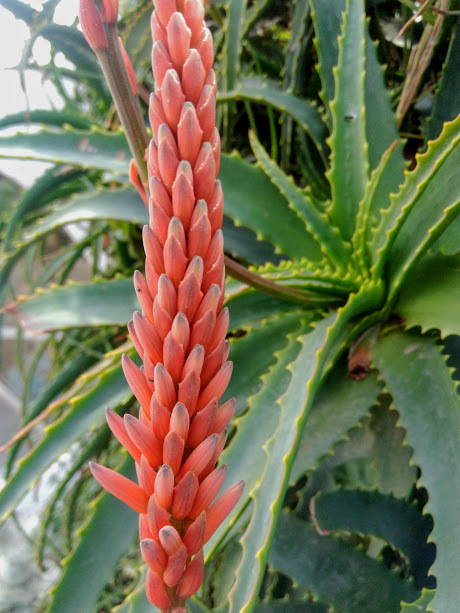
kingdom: Plantae
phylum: Tracheophyta
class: Liliopsida
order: Asparagales
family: Asphodelaceae
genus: Aloe
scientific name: Aloe arborescens
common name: Candelabra aloe
